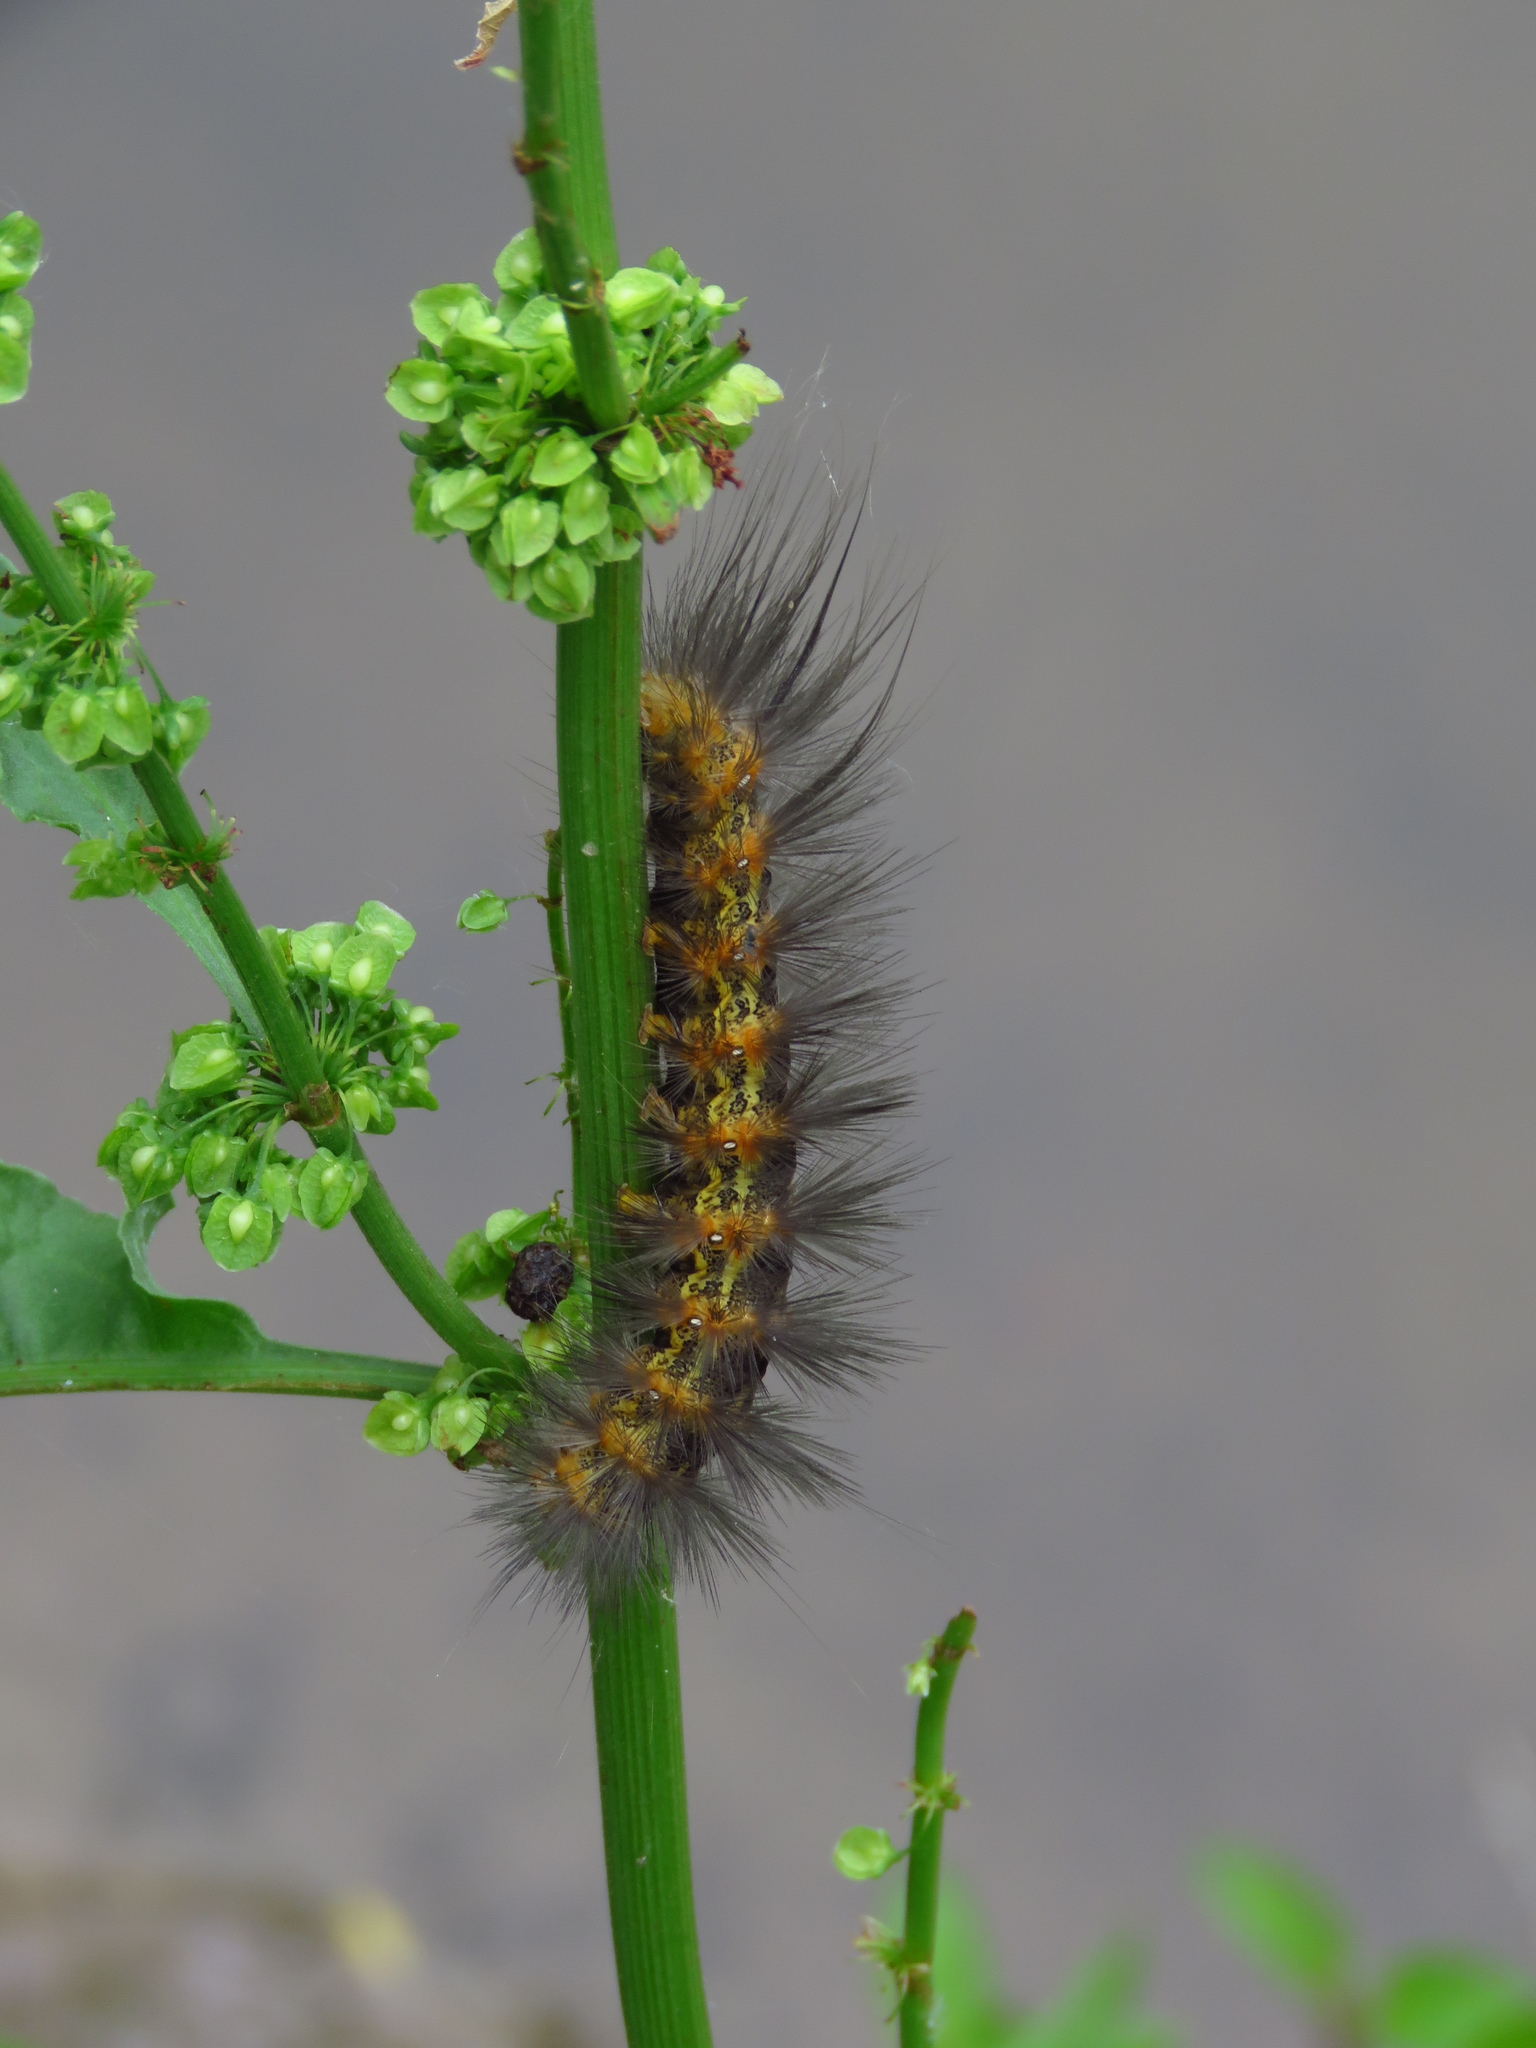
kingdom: Animalia
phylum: Arthropoda
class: Insecta
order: Lepidoptera
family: Erebidae
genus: Estigmene
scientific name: Estigmene acrea
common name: Salt marsh moth
